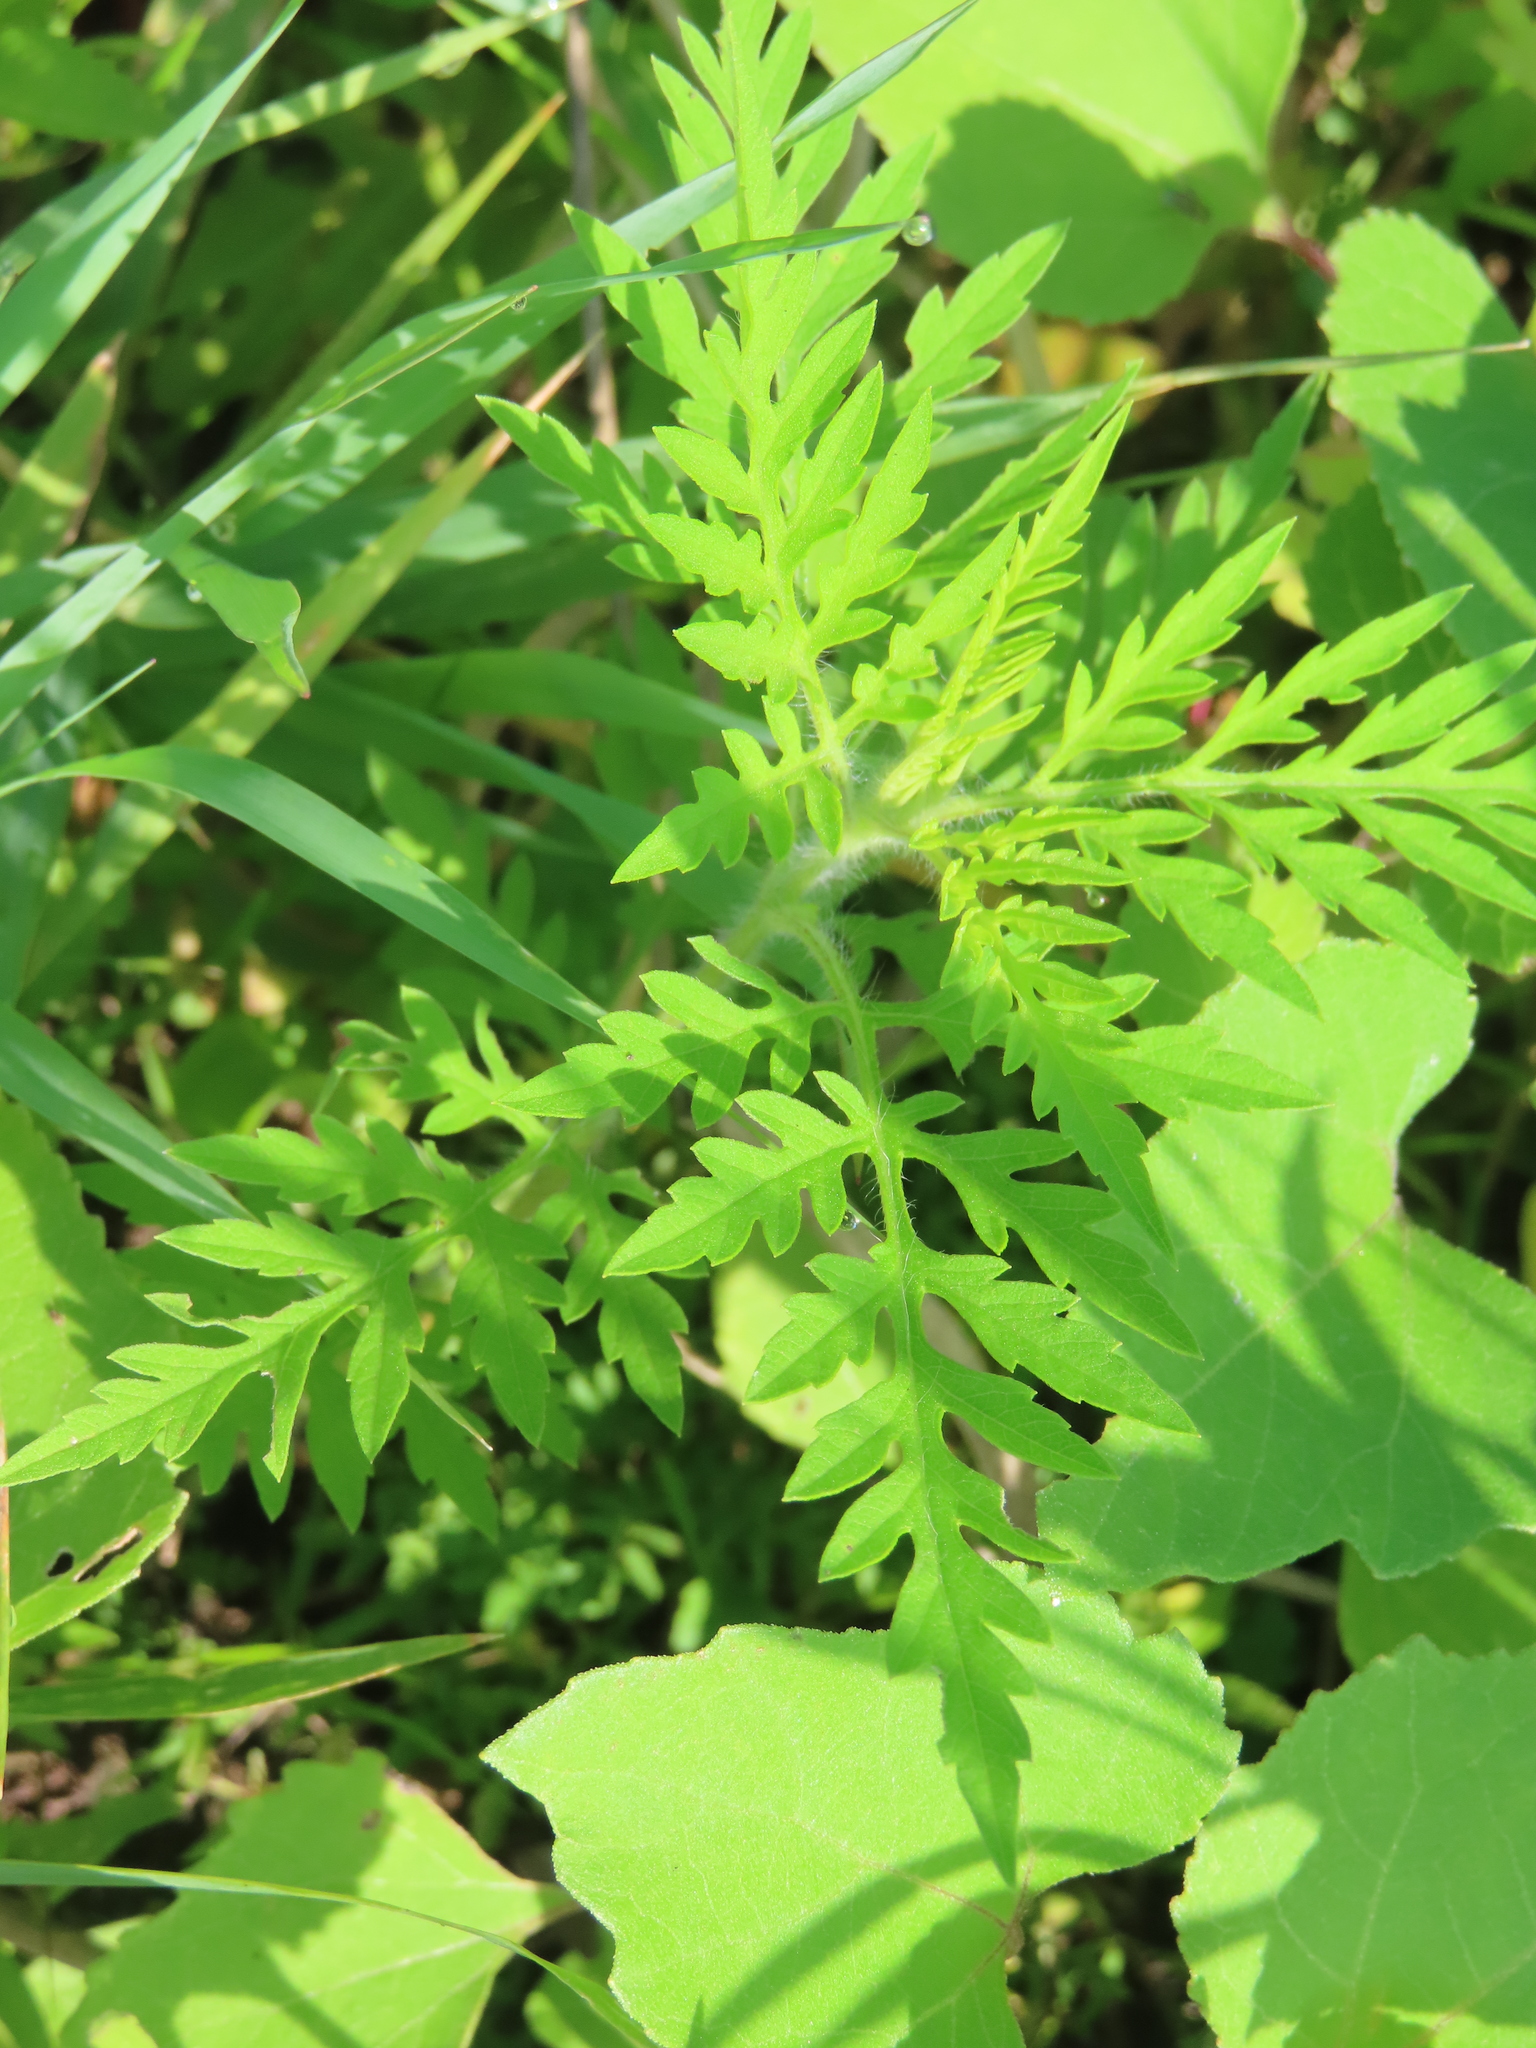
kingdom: Plantae
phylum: Tracheophyta
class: Magnoliopsida
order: Asterales
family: Asteraceae
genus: Ambrosia
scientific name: Ambrosia artemisiifolia
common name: Annual ragweed
